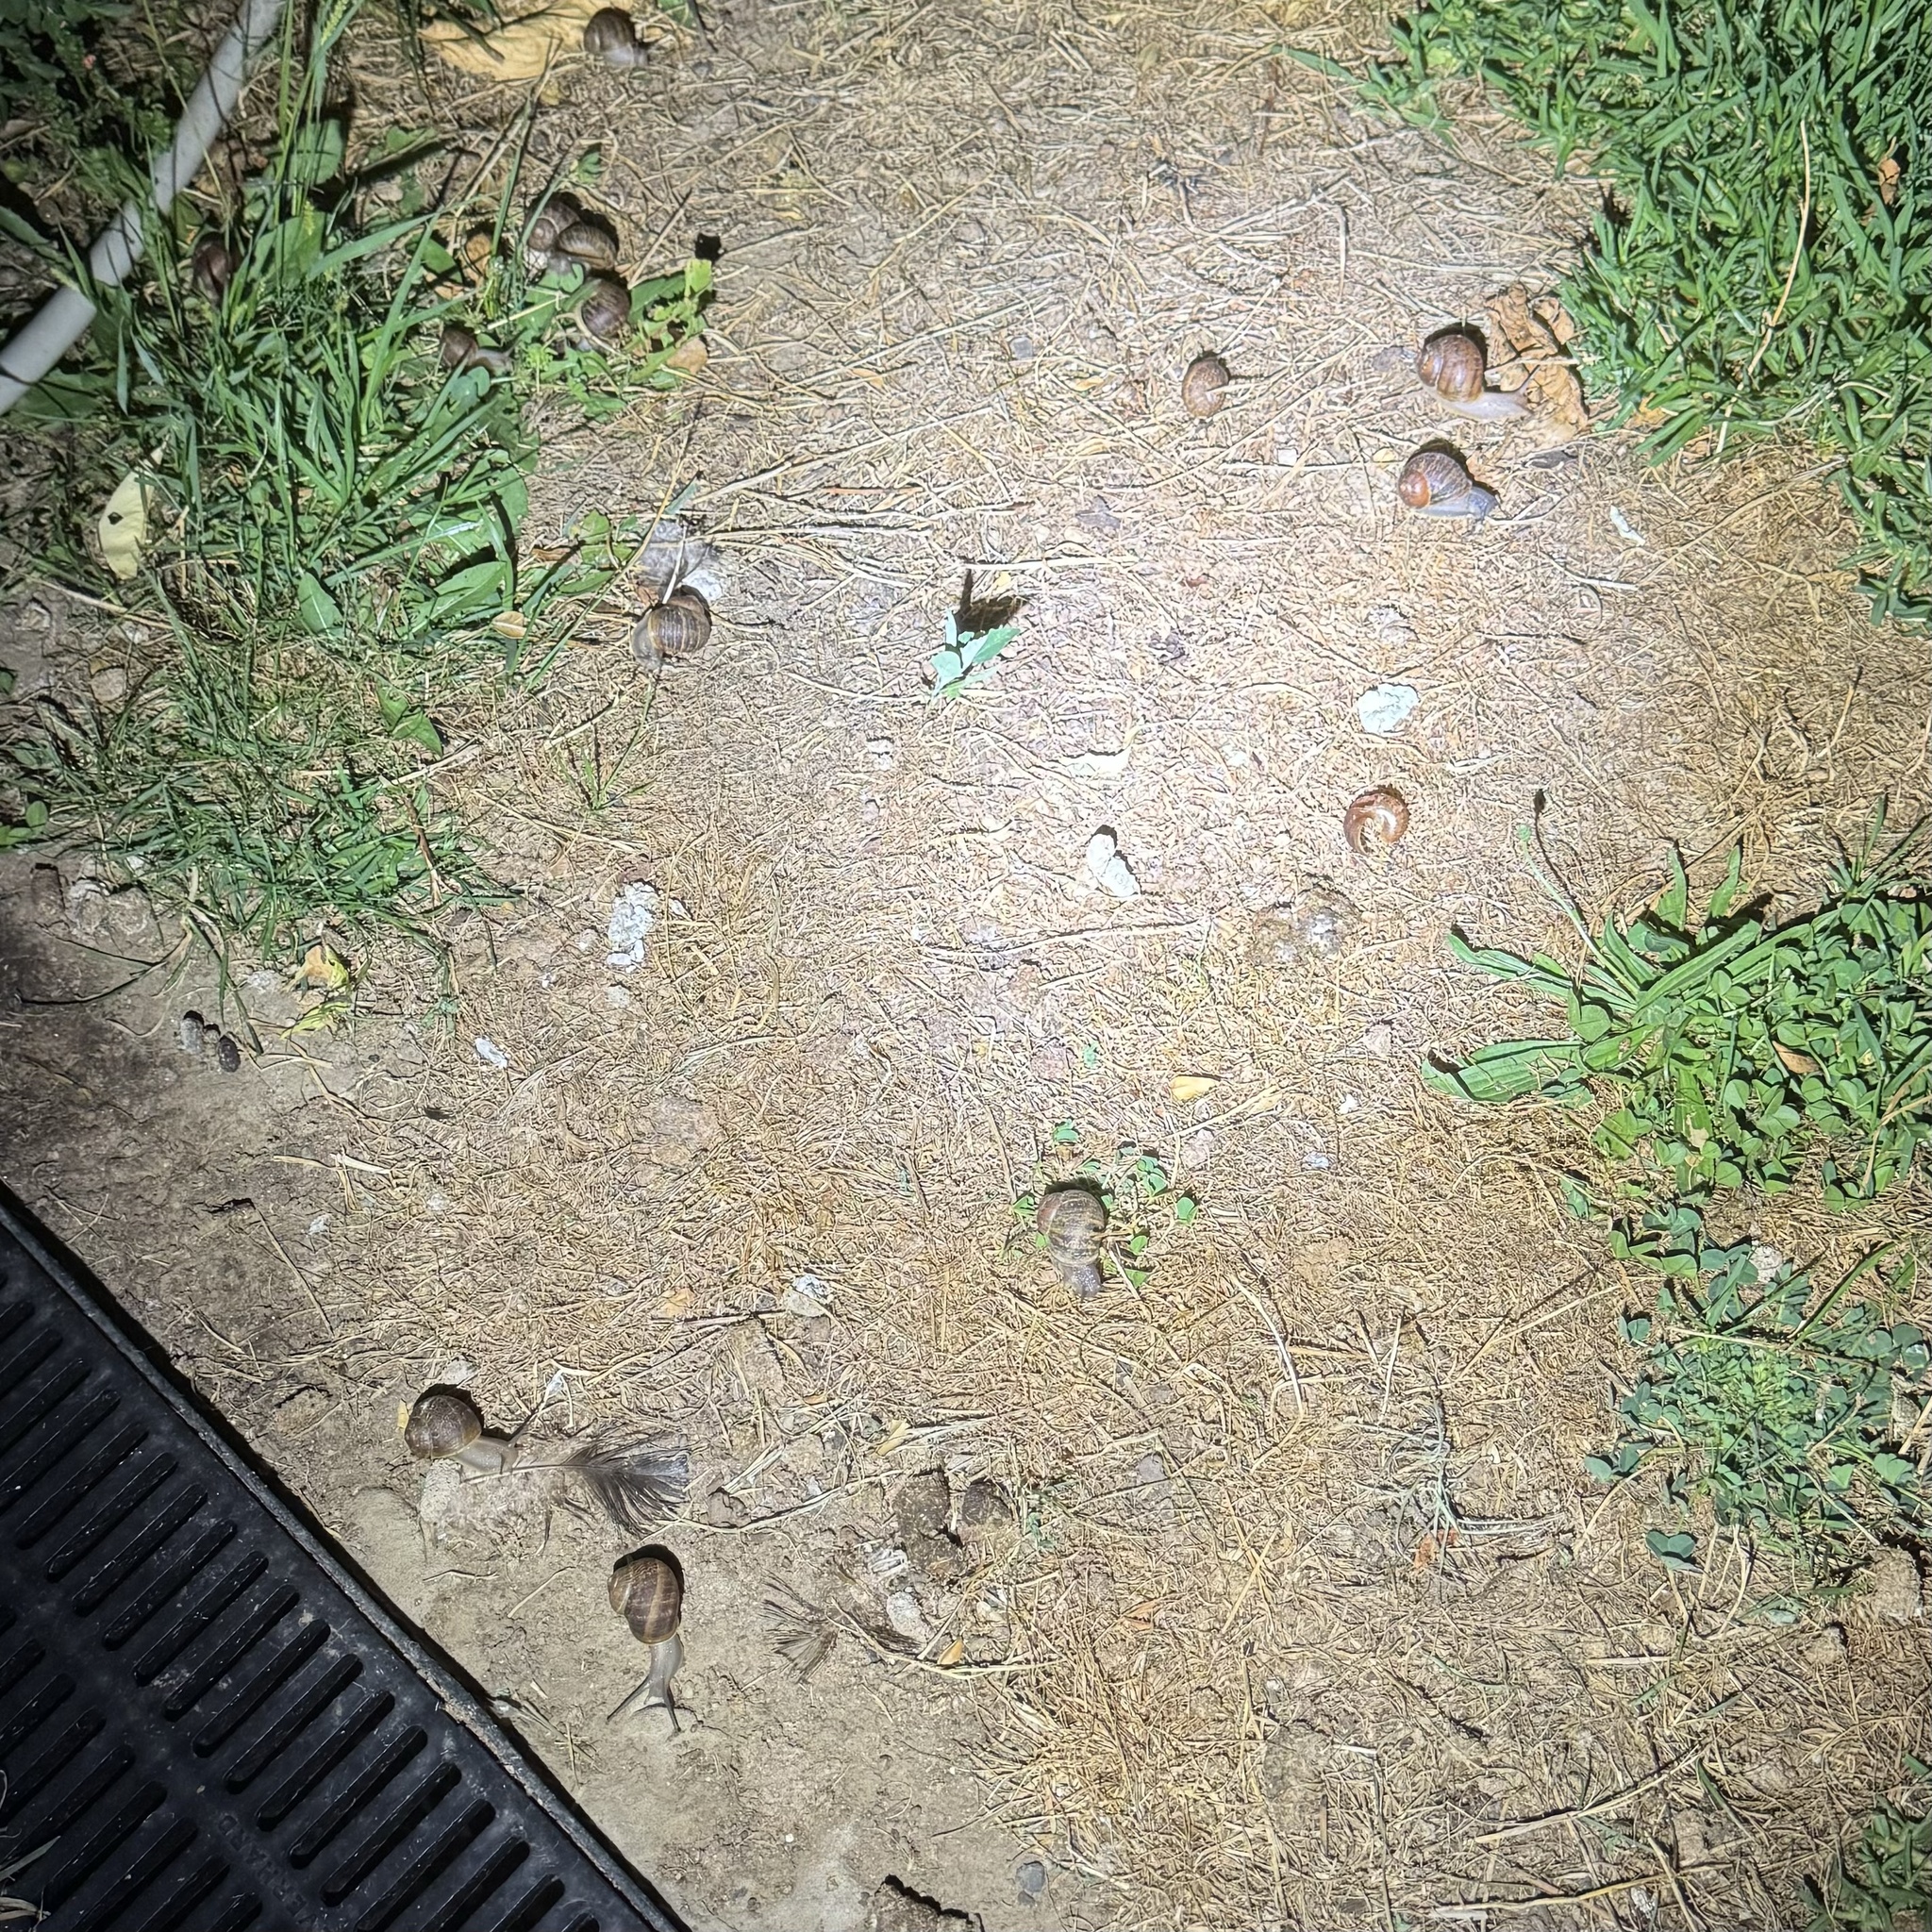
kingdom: Animalia
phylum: Mollusca
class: Gastropoda
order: Stylommatophora
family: Helicidae
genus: Cornu
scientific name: Cornu aspersum
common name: Brown garden snail
